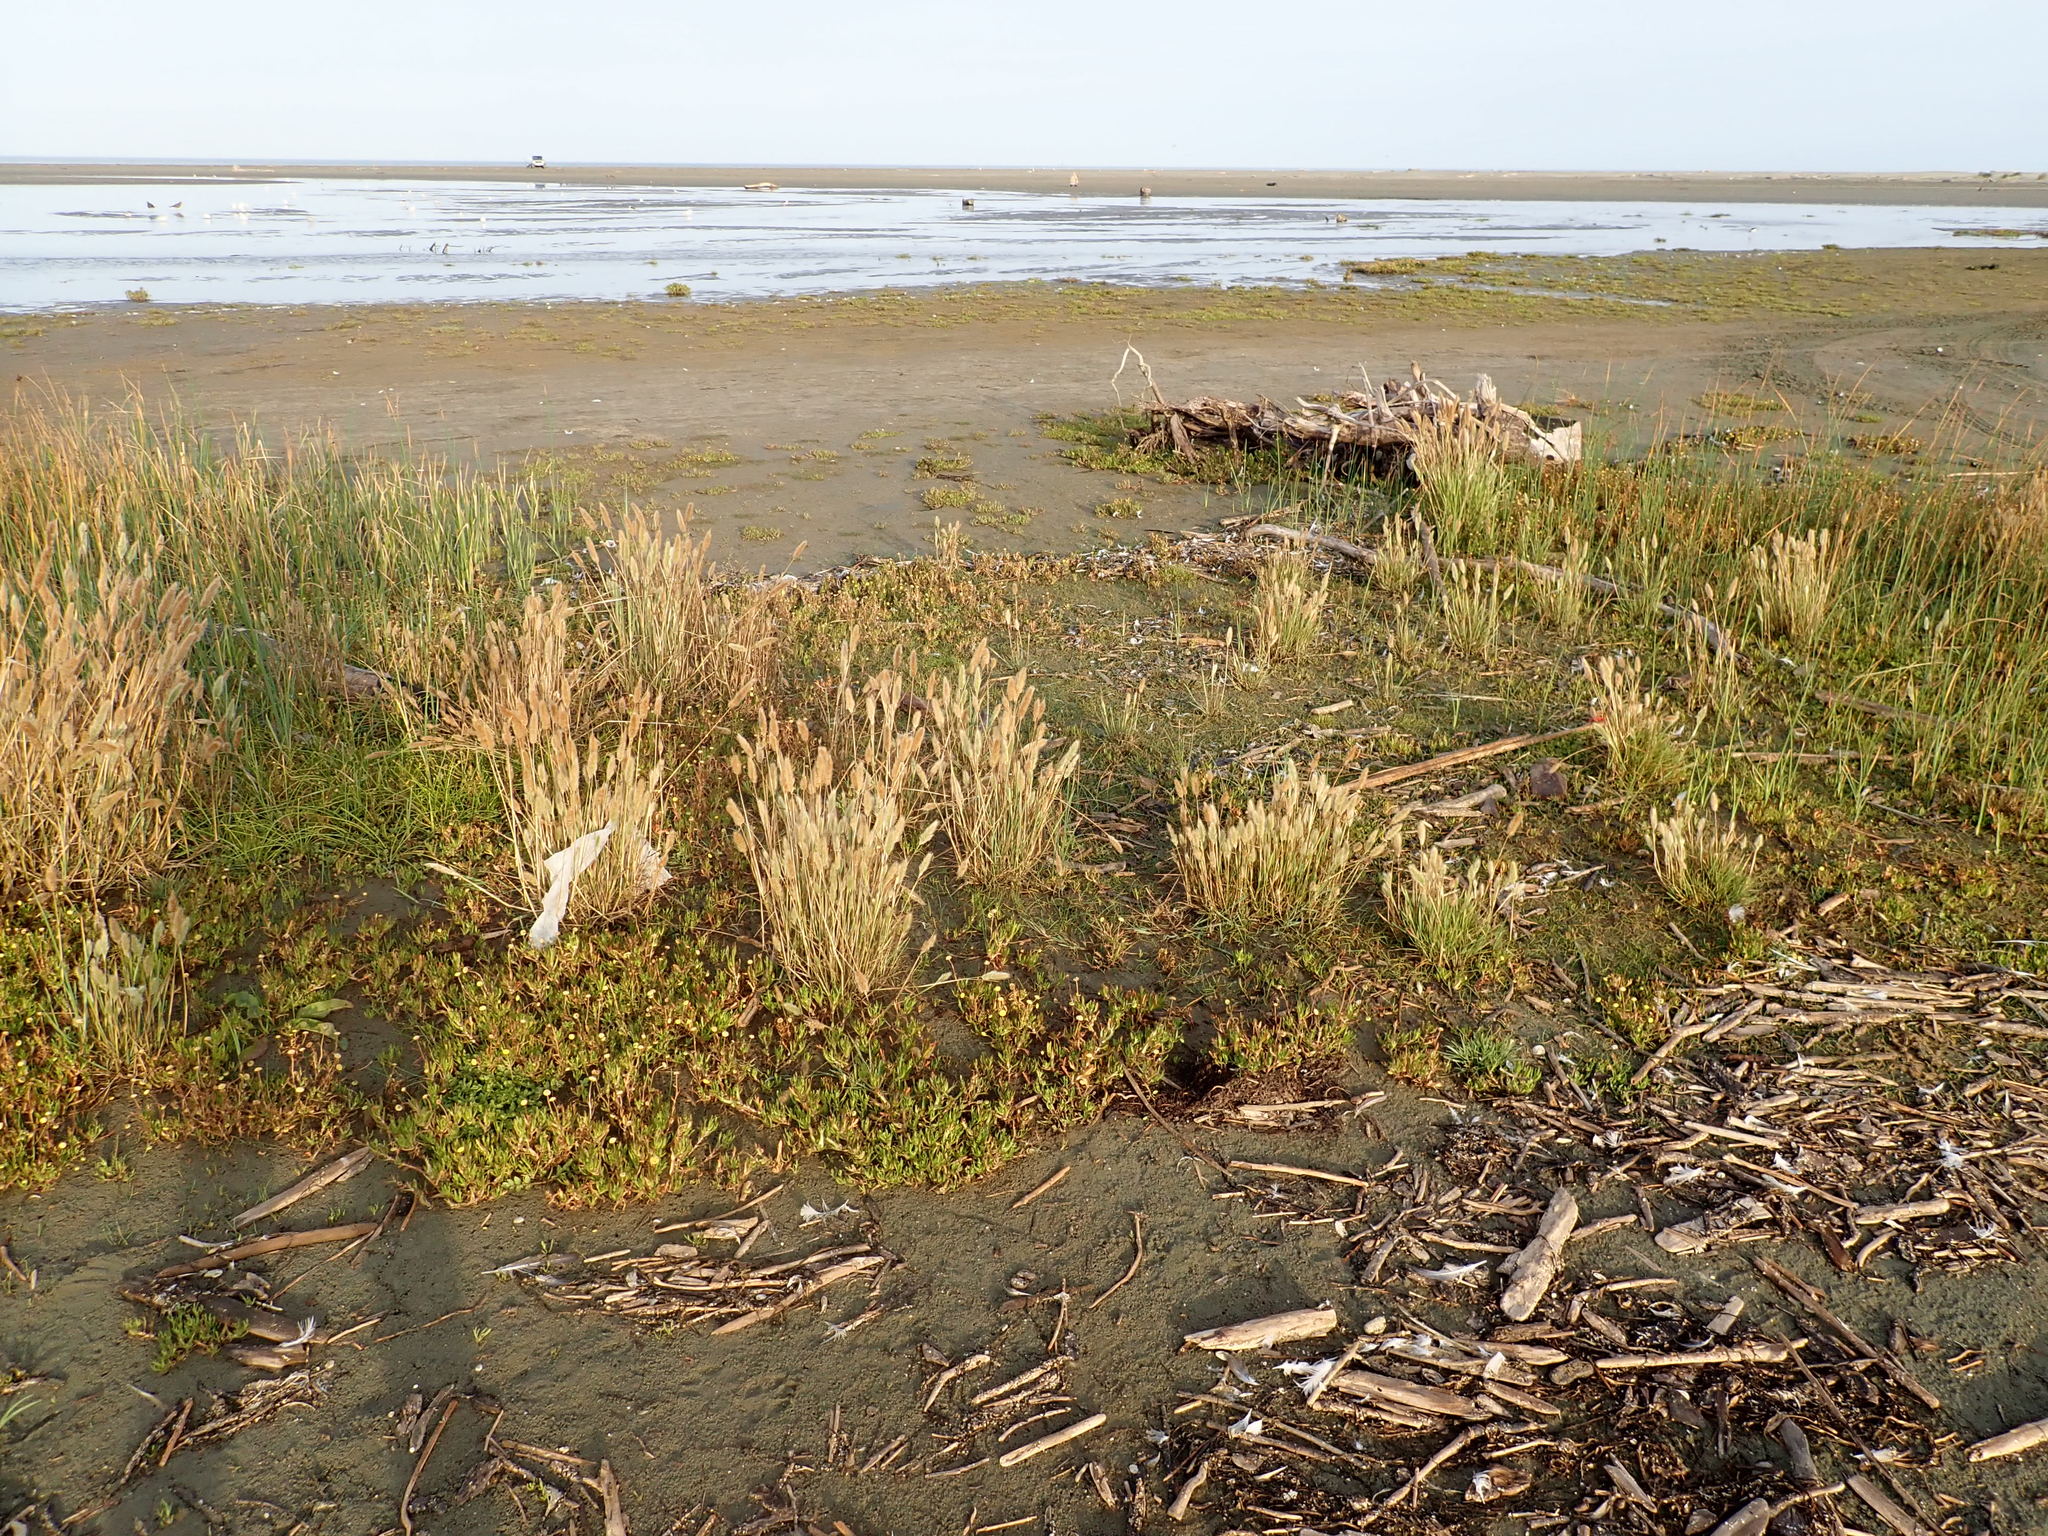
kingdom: Plantae
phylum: Tracheophyta
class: Liliopsida
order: Poales
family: Poaceae
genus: Polypogon
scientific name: Polypogon monspeliensis
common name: Annual rabbitsfoot grass
